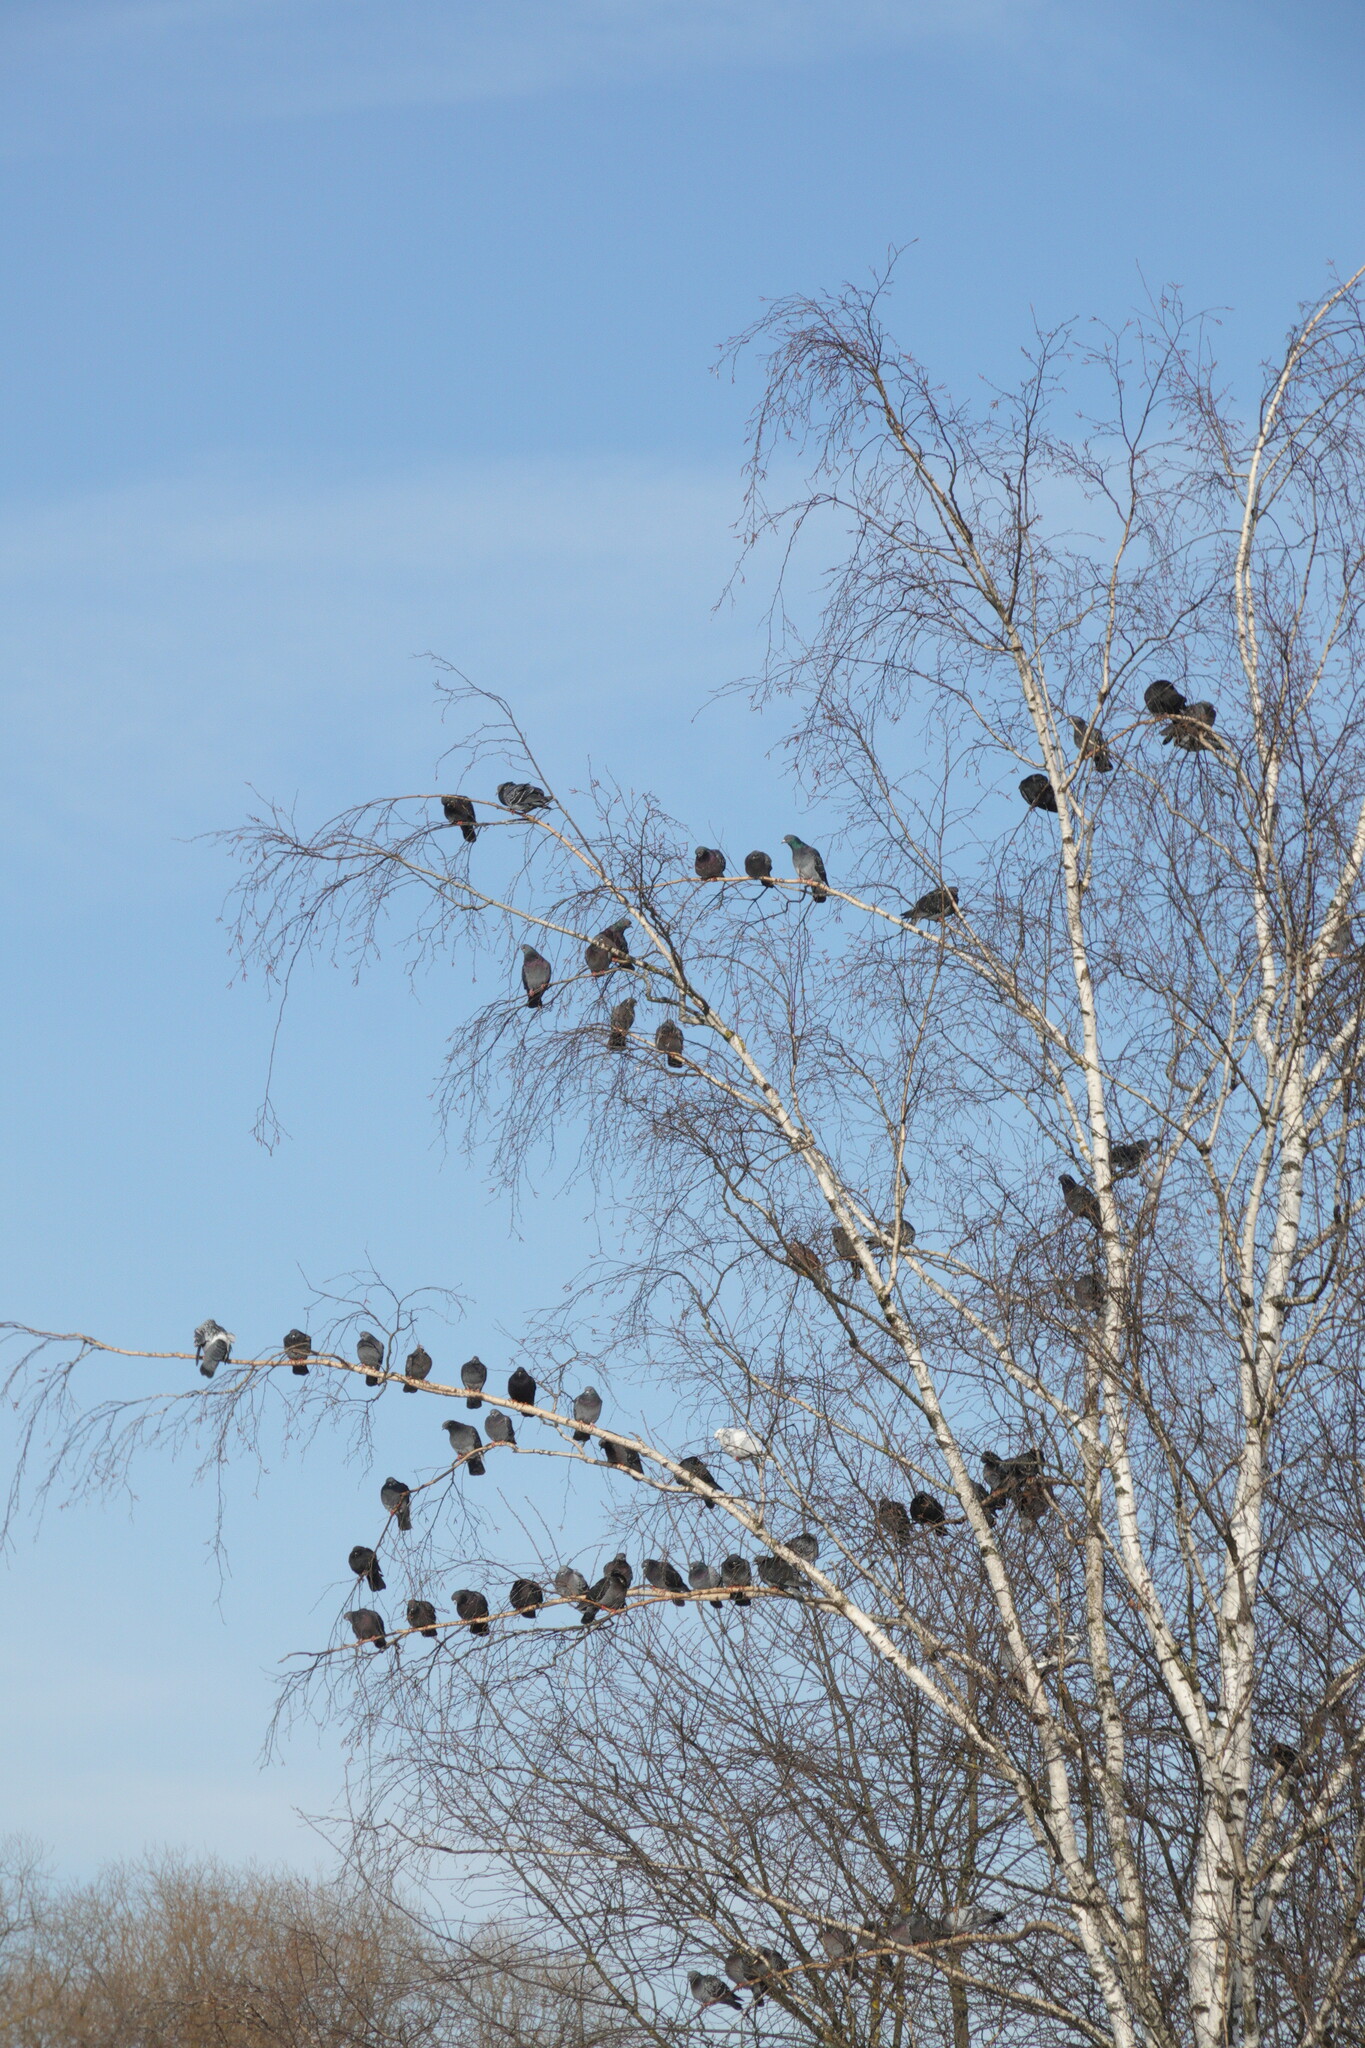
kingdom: Animalia
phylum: Chordata
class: Aves
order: Columbiformes
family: Columbidae
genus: Columba
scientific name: Columba livia
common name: Rock pigeon
